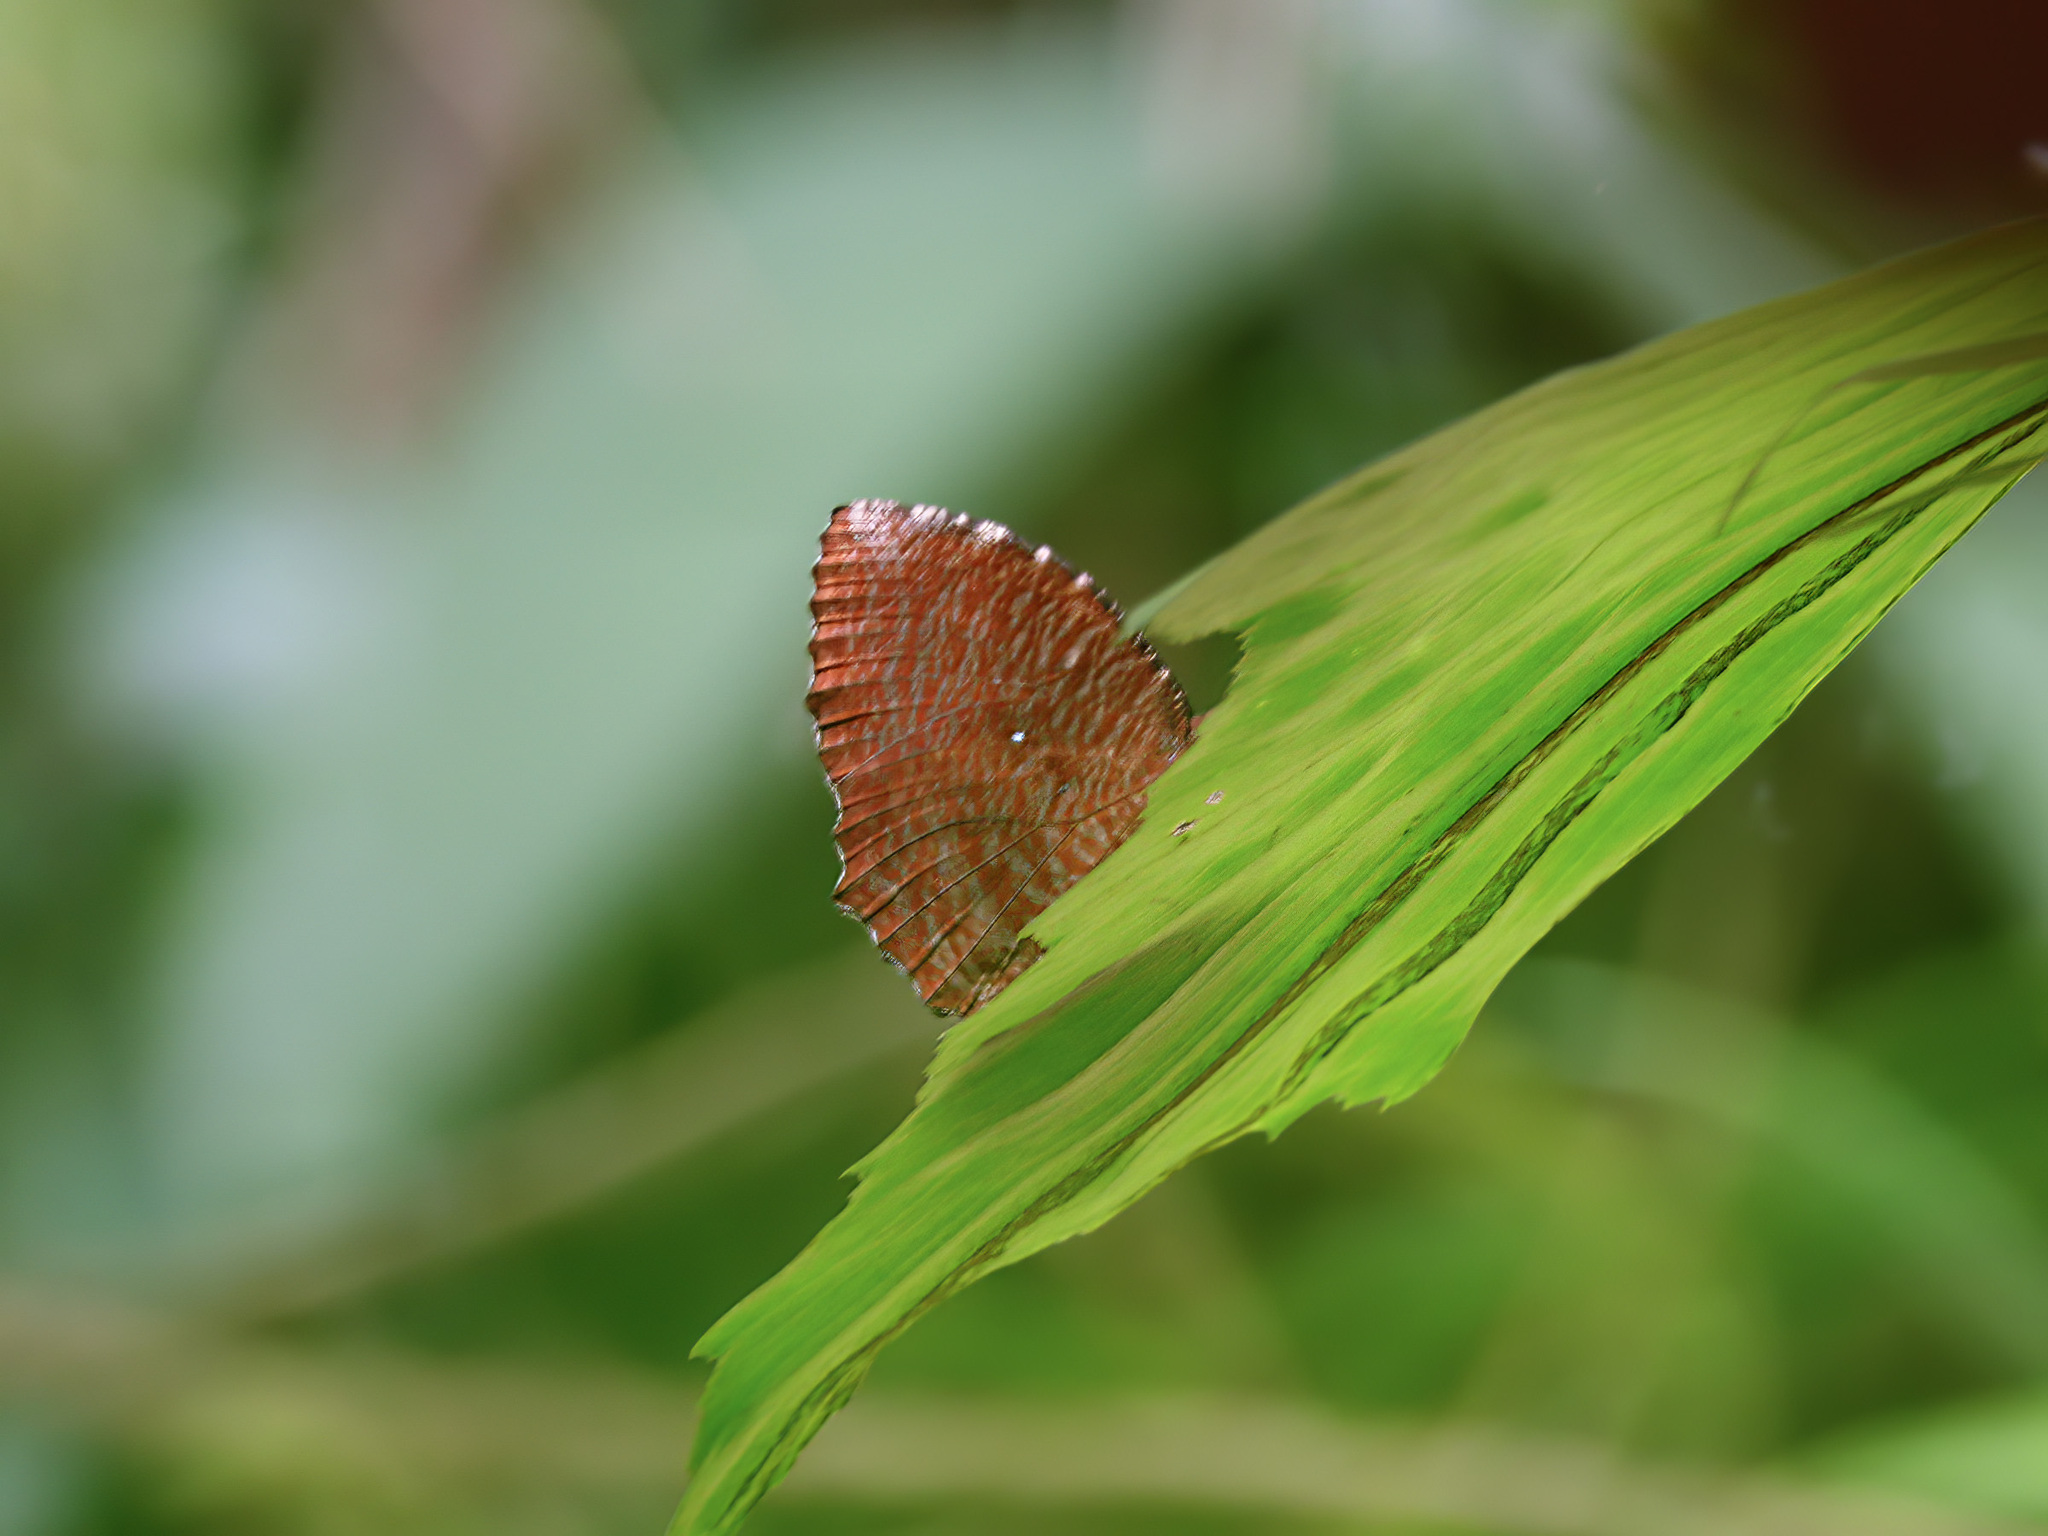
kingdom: Animalia
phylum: Arthropoda
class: Insecta
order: Lepidoptera
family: Nymphalidae
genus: Elymnias
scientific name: Elymnias hypermnestra
